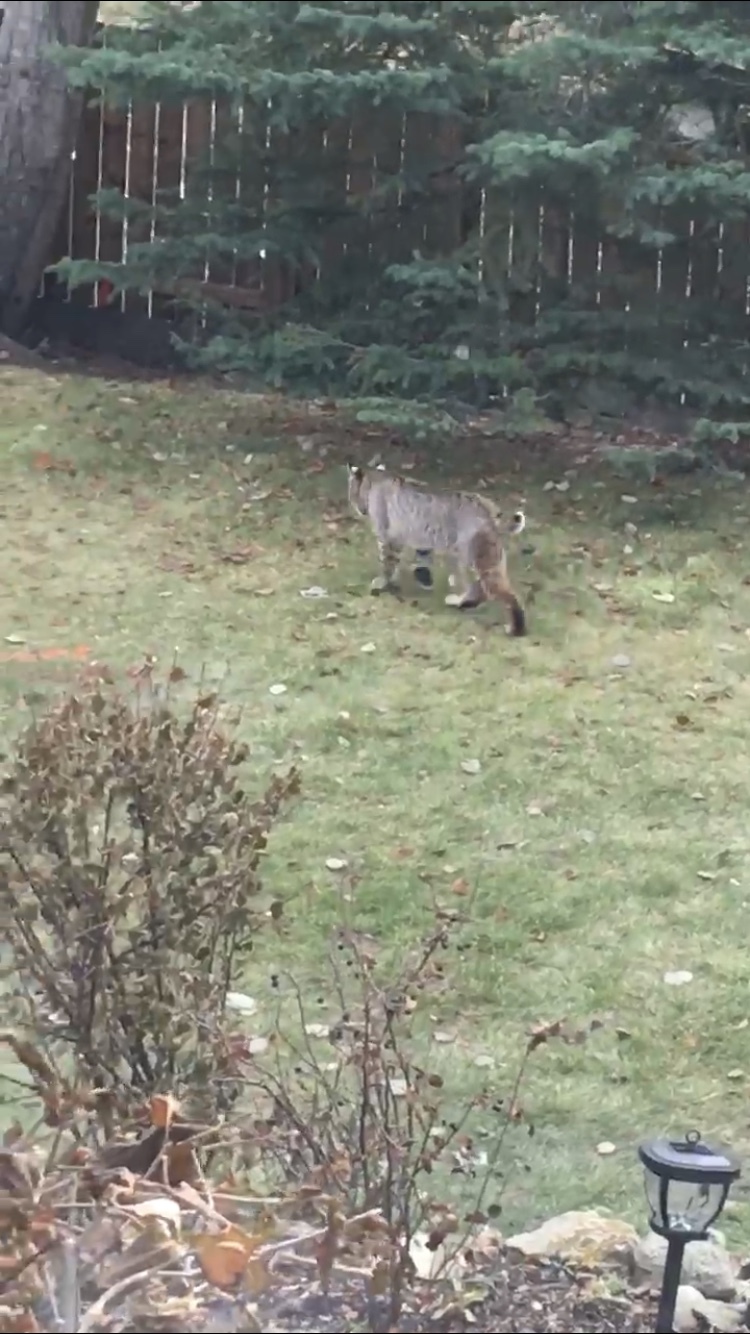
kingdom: Animalia
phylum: Chordata
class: Mammalia
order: Carnivora
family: Felidae
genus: Lynx
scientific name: Lynx rufus
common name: Bobcat
